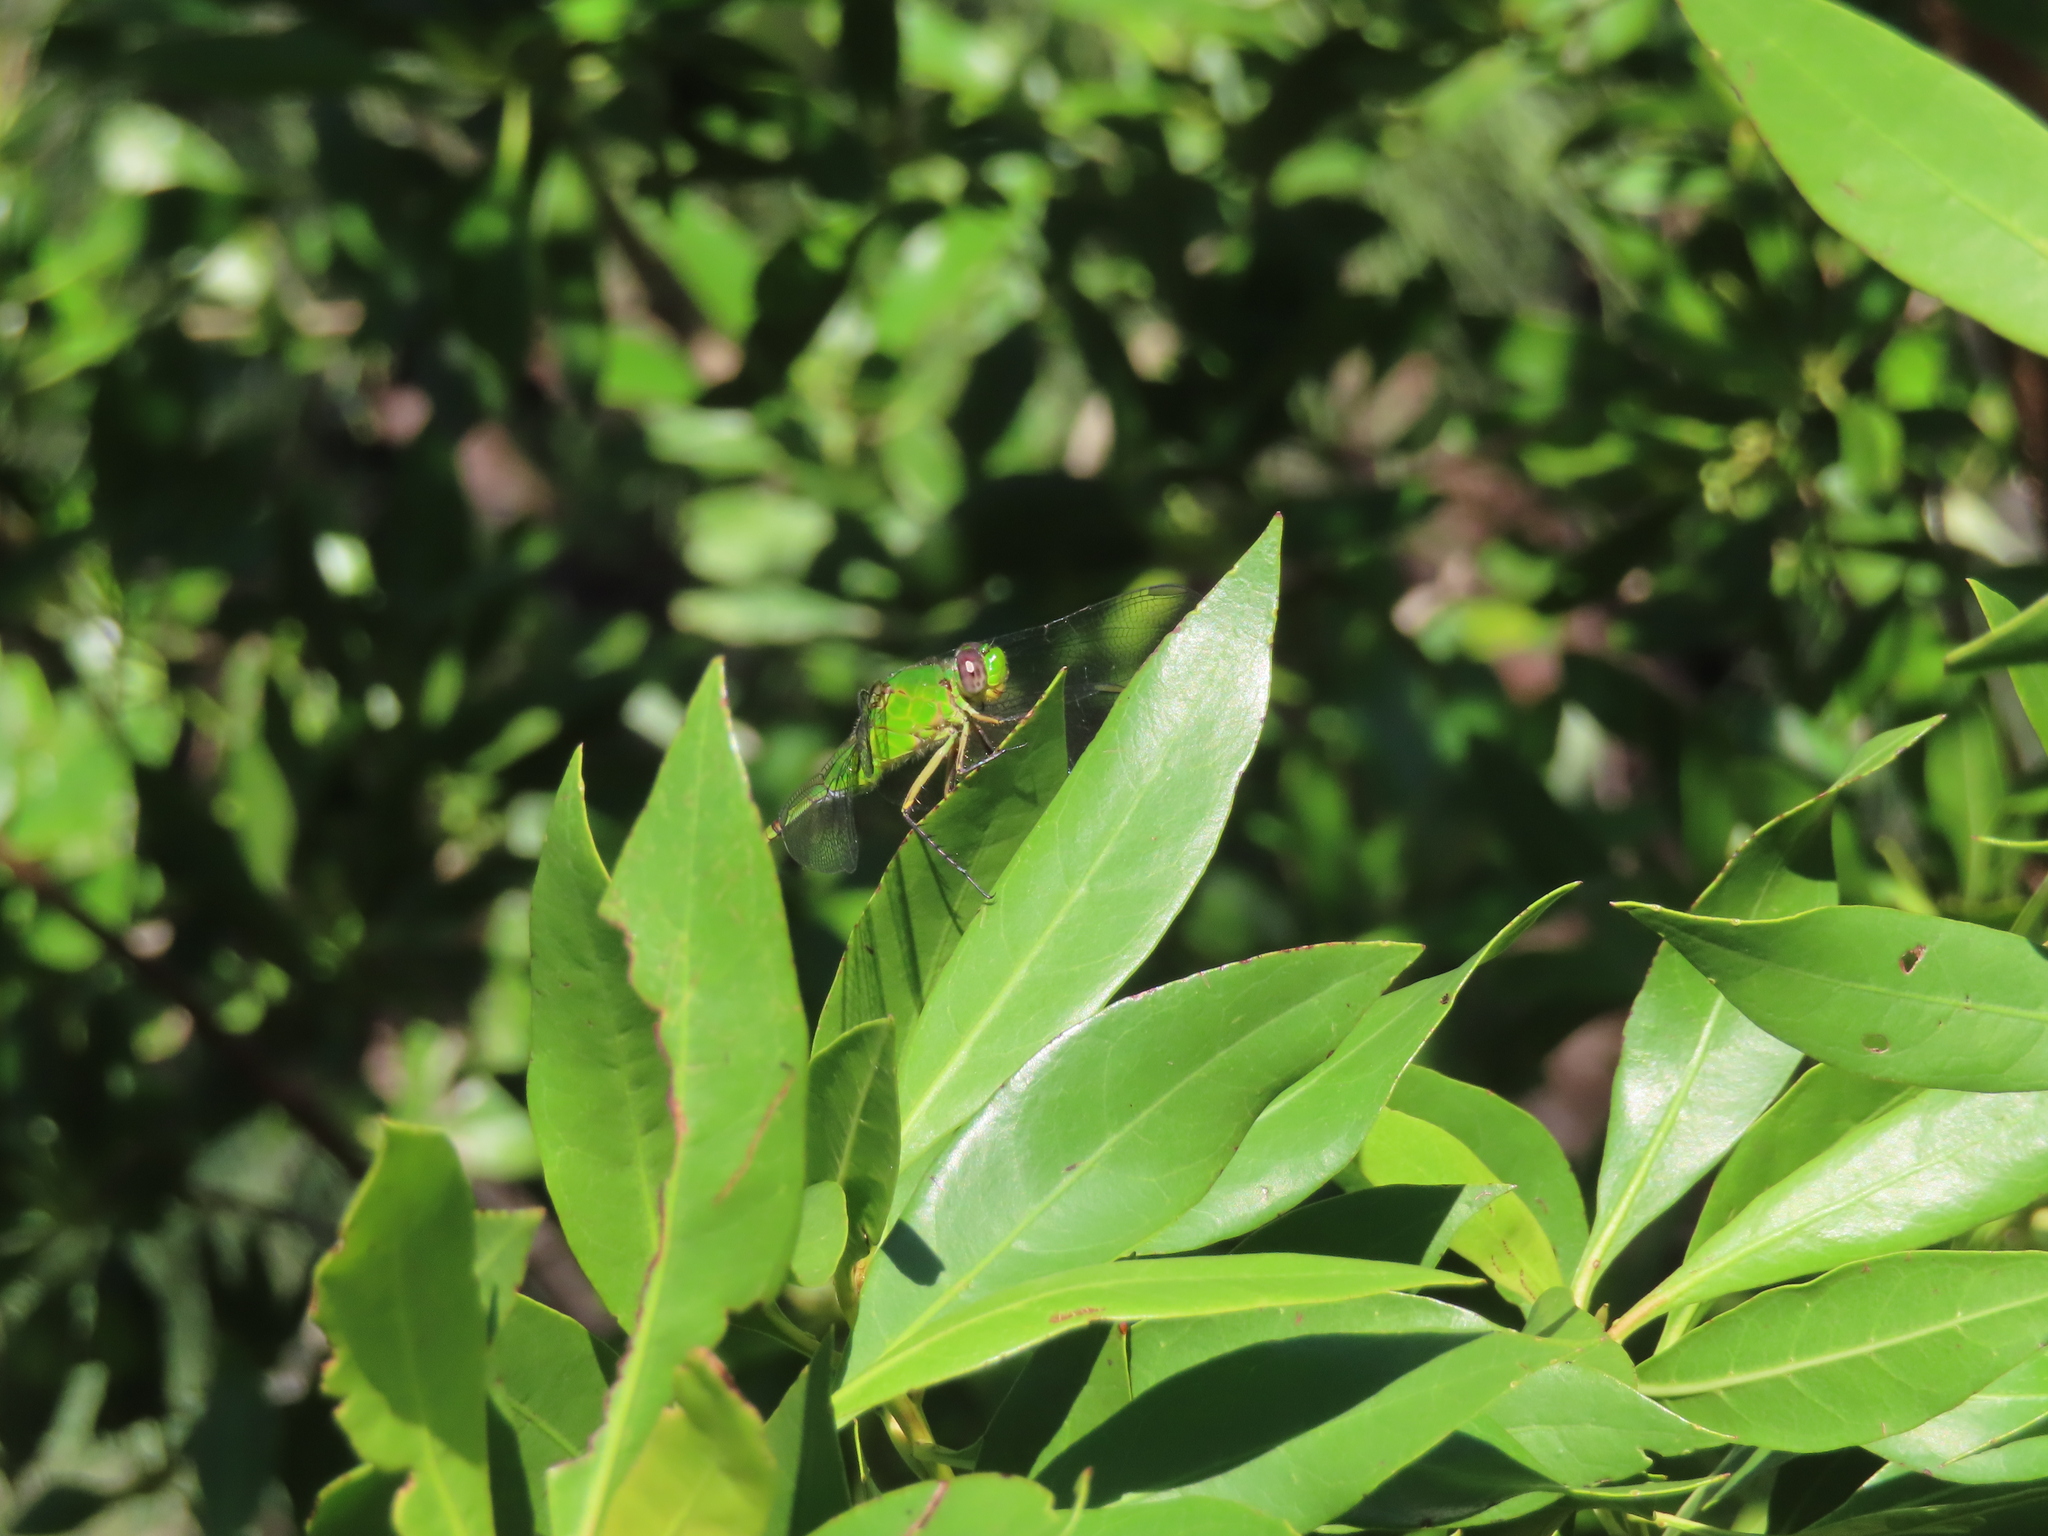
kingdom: Animalia
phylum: Arthropoda
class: Insecta
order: Odonata
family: Libellulidae
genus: Erythemis
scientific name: Erythemis vesiculosa
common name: Great pondhawk
